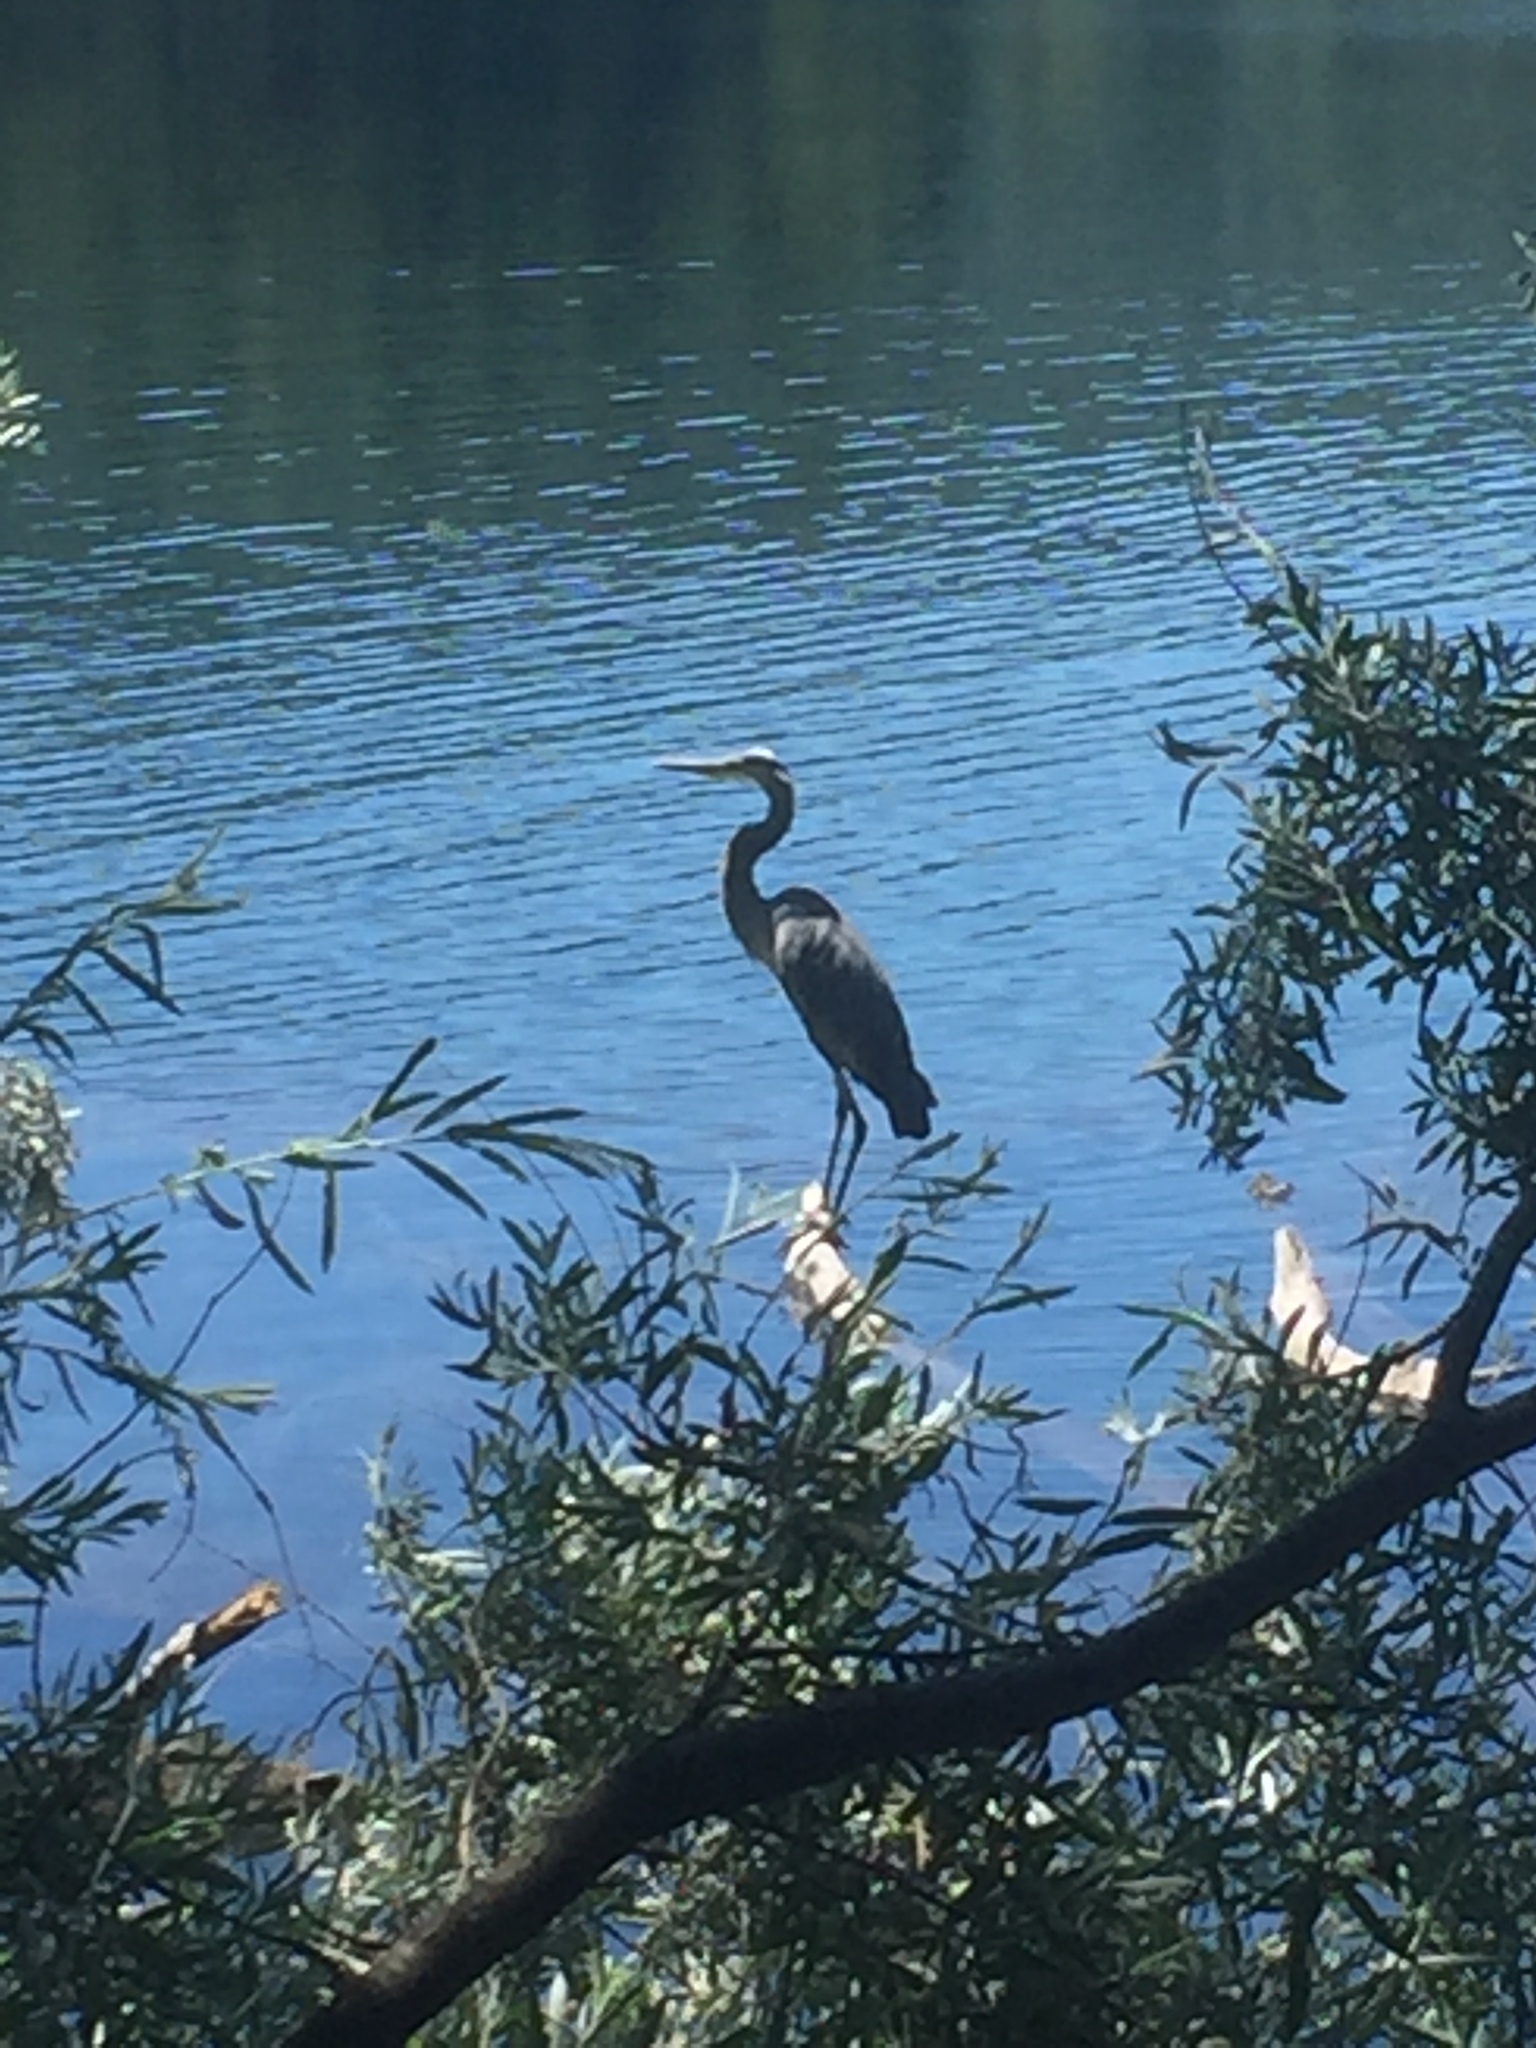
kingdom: Animalia
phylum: Chordata
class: Aves
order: Pelecaniformes
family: Ardeidae
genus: Ardea
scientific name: Ardea herodias
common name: Great blue heron
